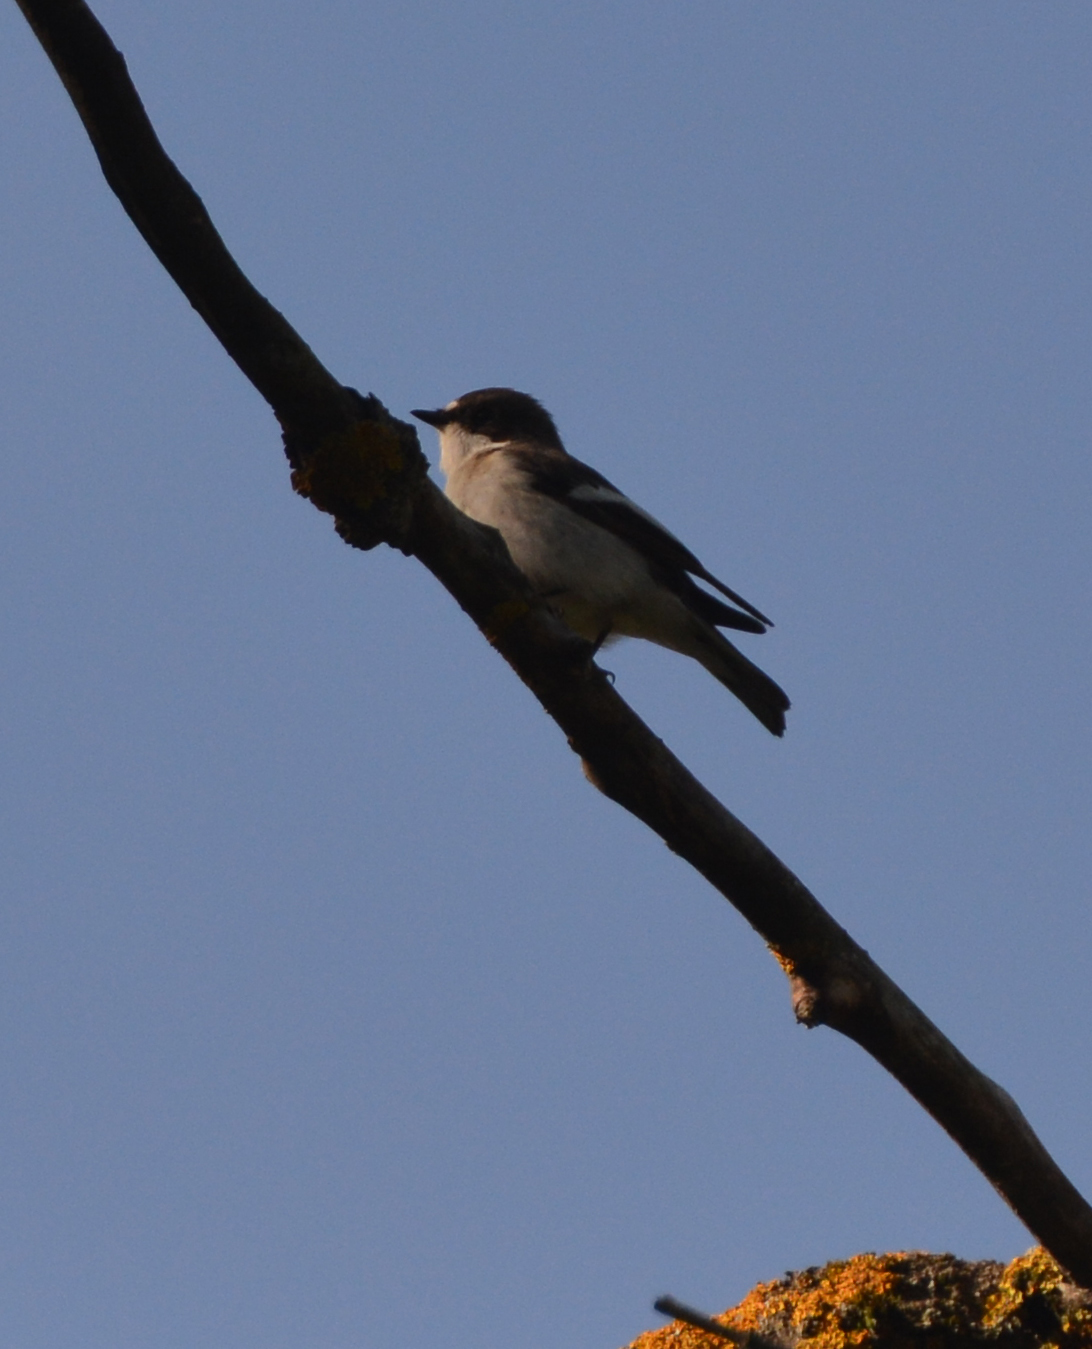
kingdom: Animalia
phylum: Chordata
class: Aves
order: Passeriformes
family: Muscicapidae
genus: Ficedula
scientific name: Ficedula hypoleuca
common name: European pied flycatcher
